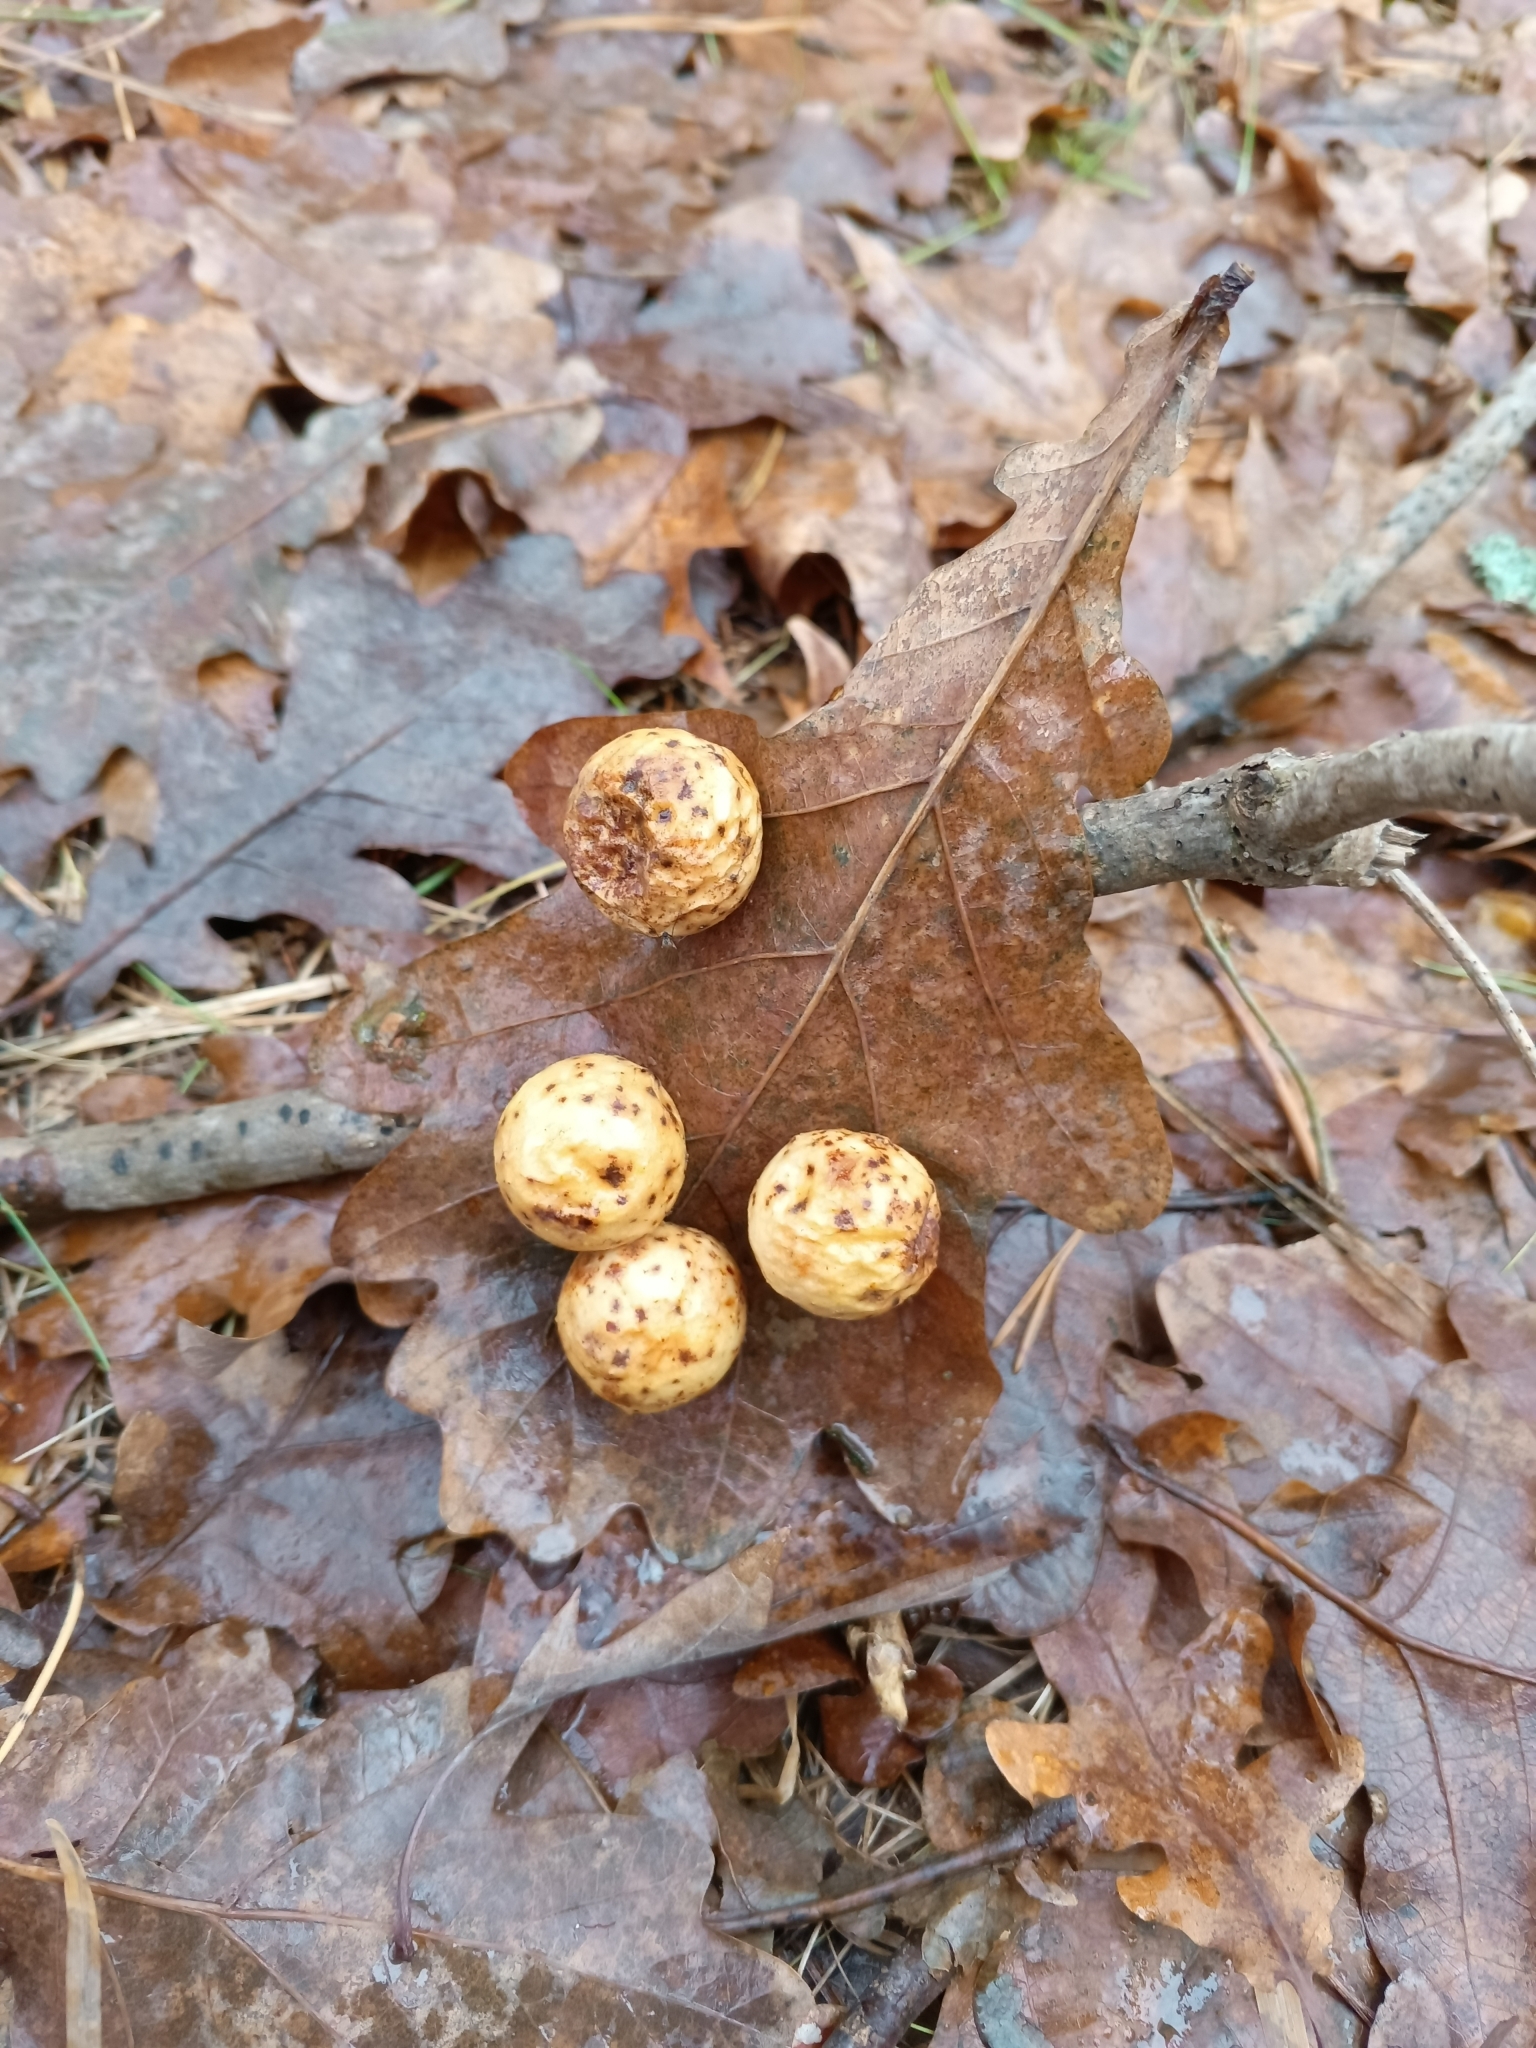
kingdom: Animalia
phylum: Arthropoda
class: Insecta
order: Hymenoptera
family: Cynipidae
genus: Cynips
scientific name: Cynips quercusfolii
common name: Cherry gall
